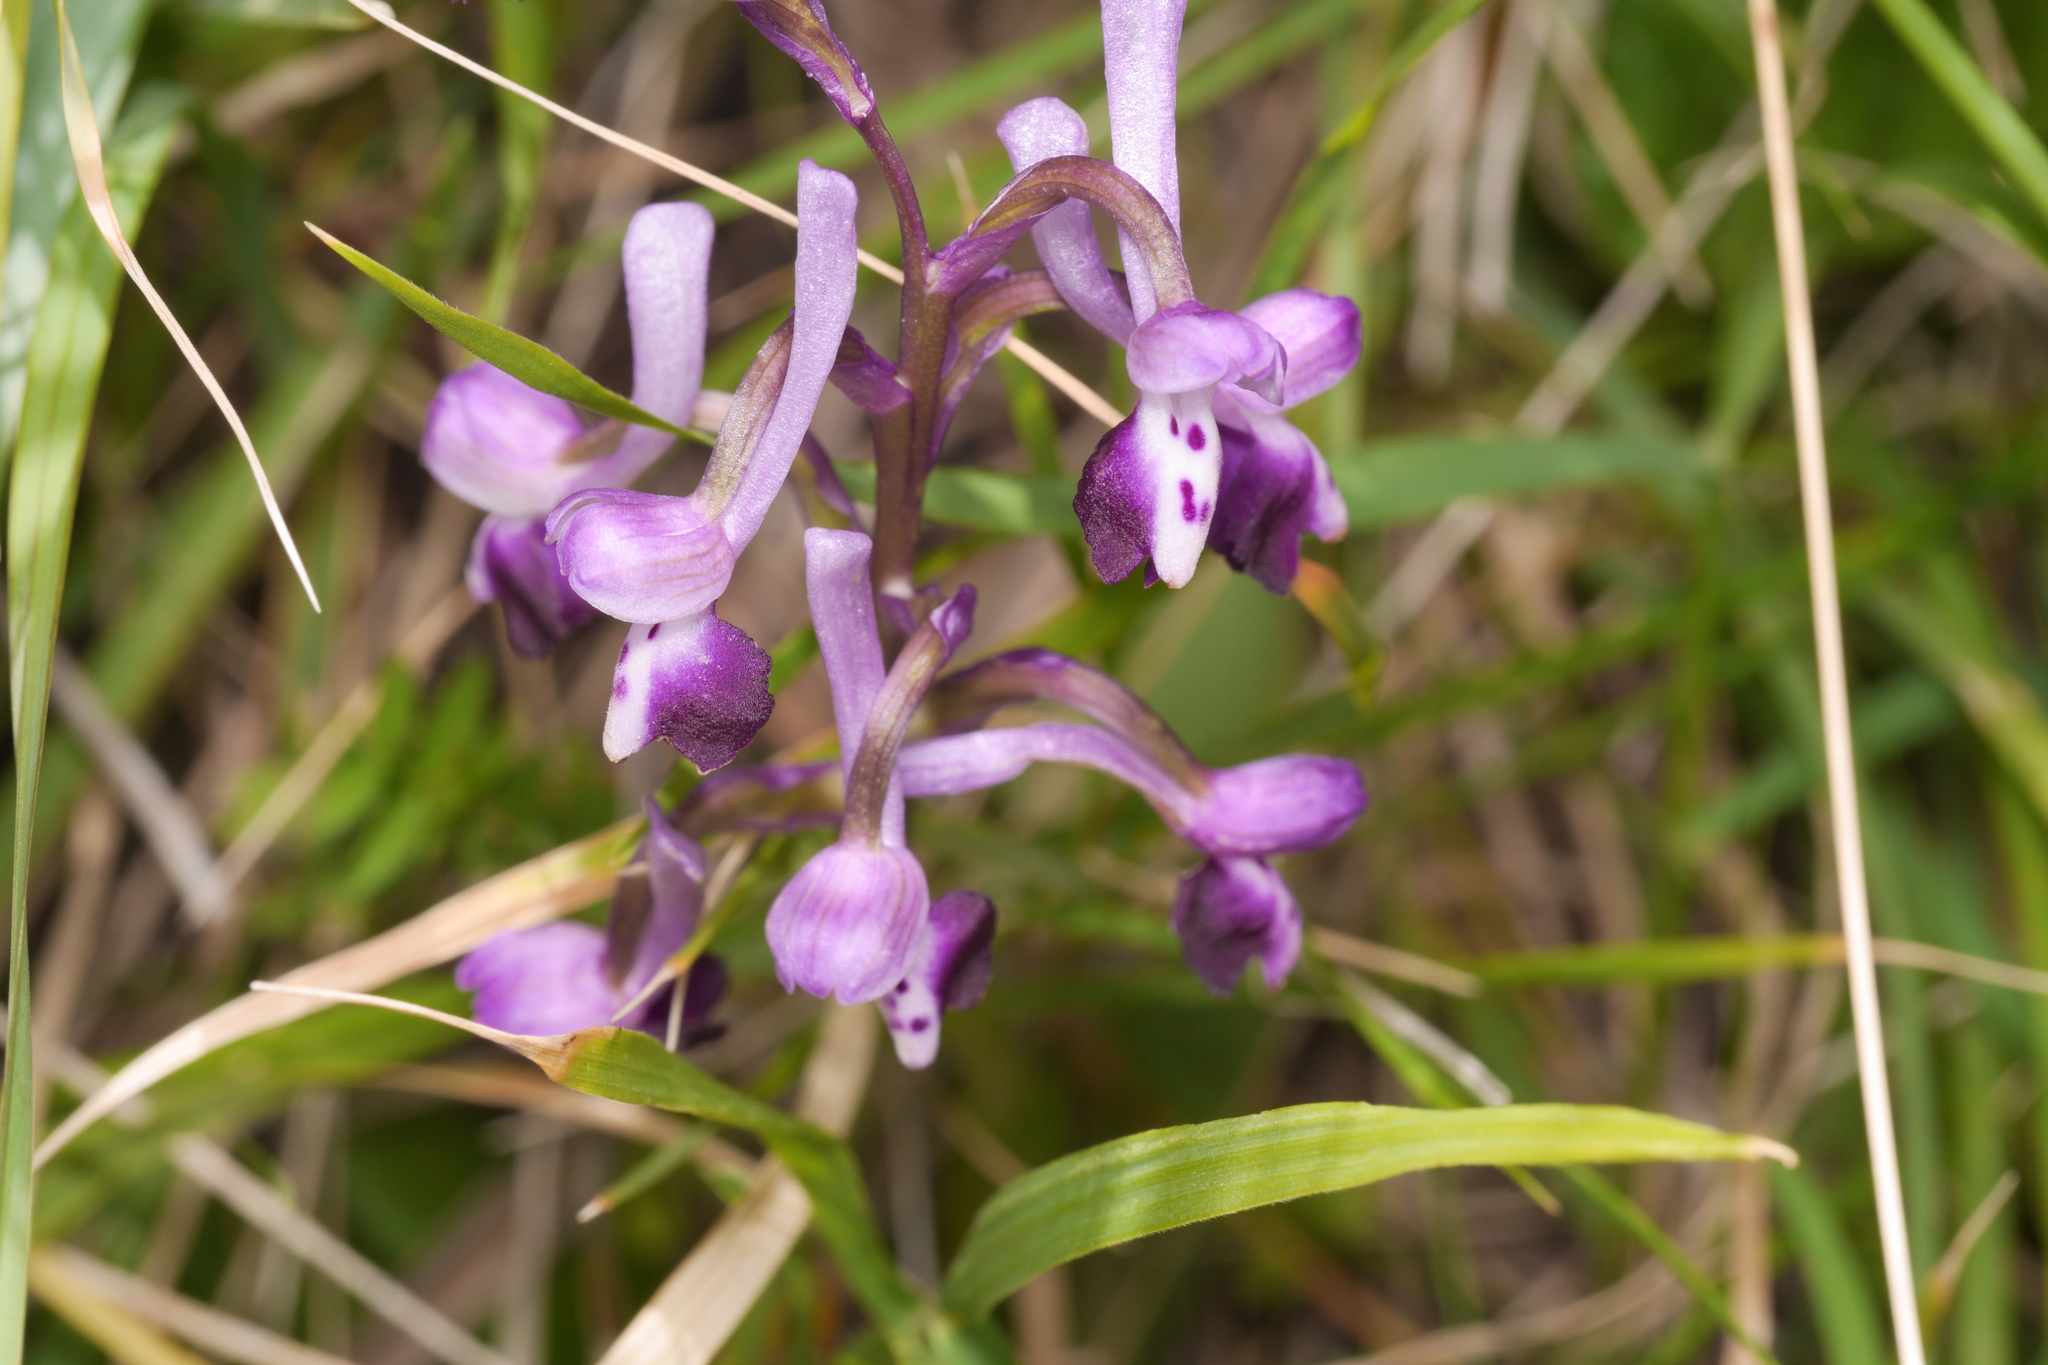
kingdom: Plantae
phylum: Tracheophyta
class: Liliopsida
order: Asparagales
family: Orchidaceae
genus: Anacamptis
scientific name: Anacamptis morio
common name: Green-winged orchid
